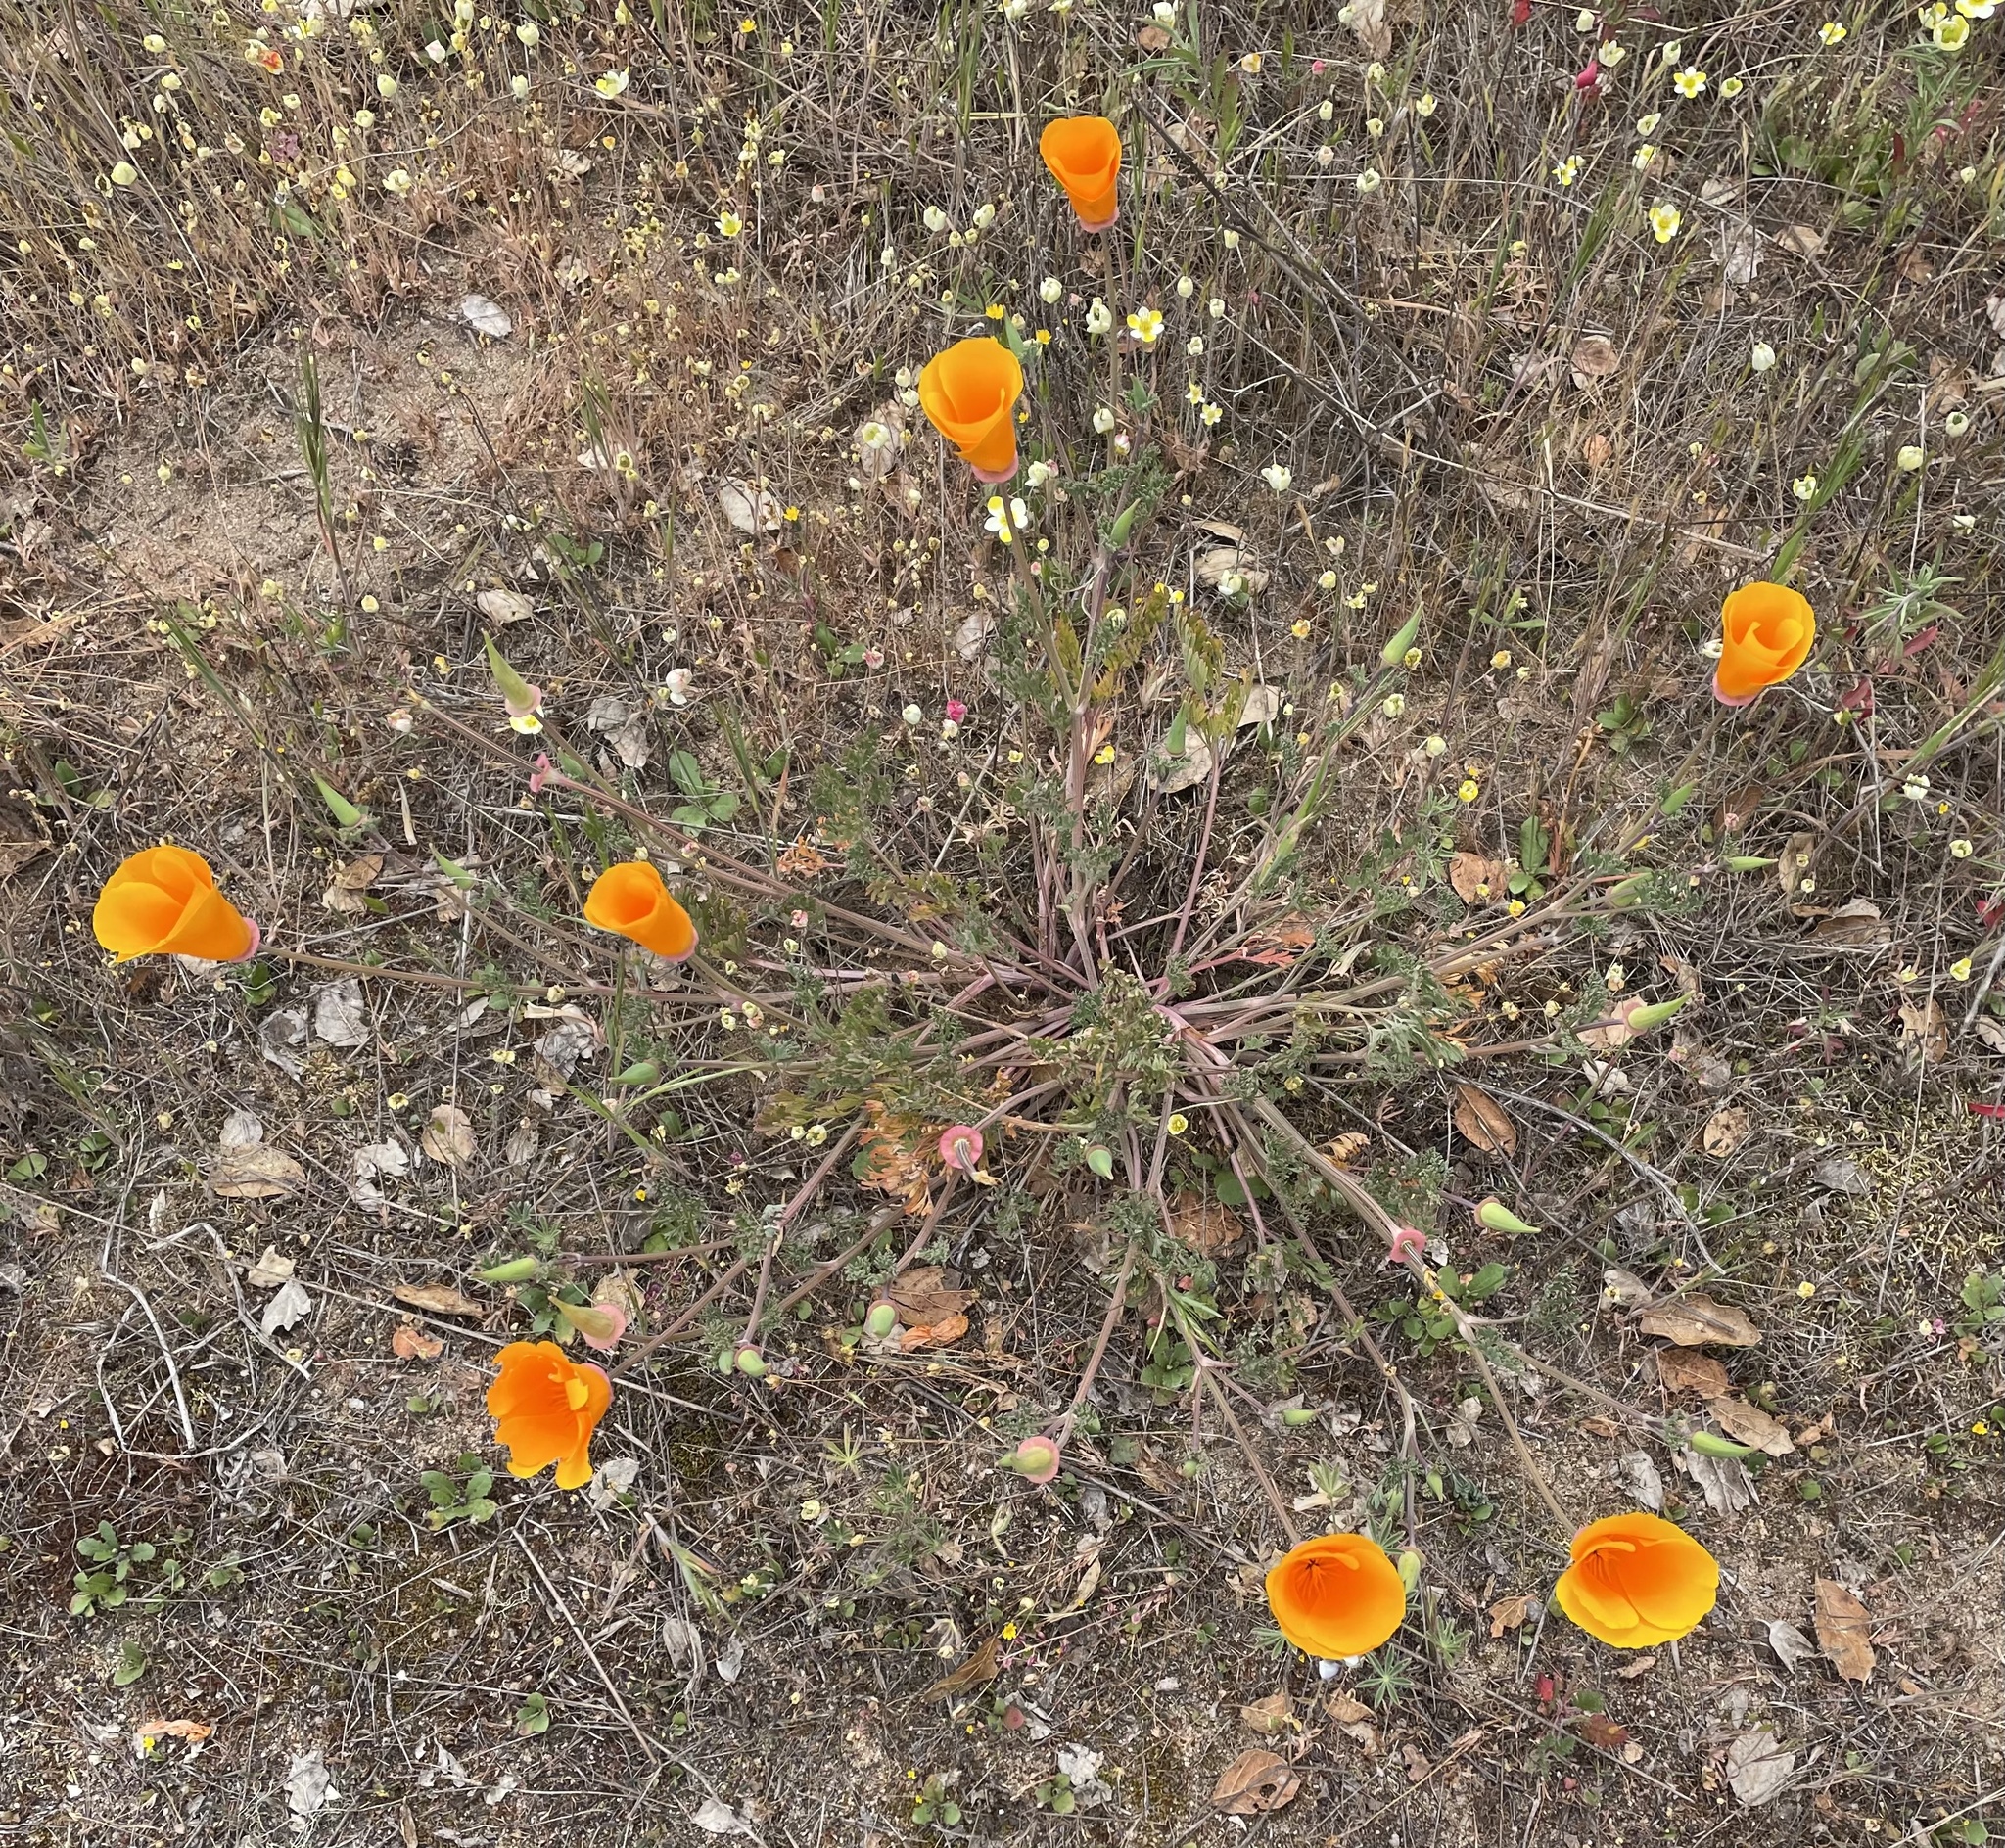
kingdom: Plantae
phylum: Tracheophyta
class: Magnoliopsida
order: Ranunculales
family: Papaveraceae
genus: Eschscholzia
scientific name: Eschscholzia californica
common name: California poppy
